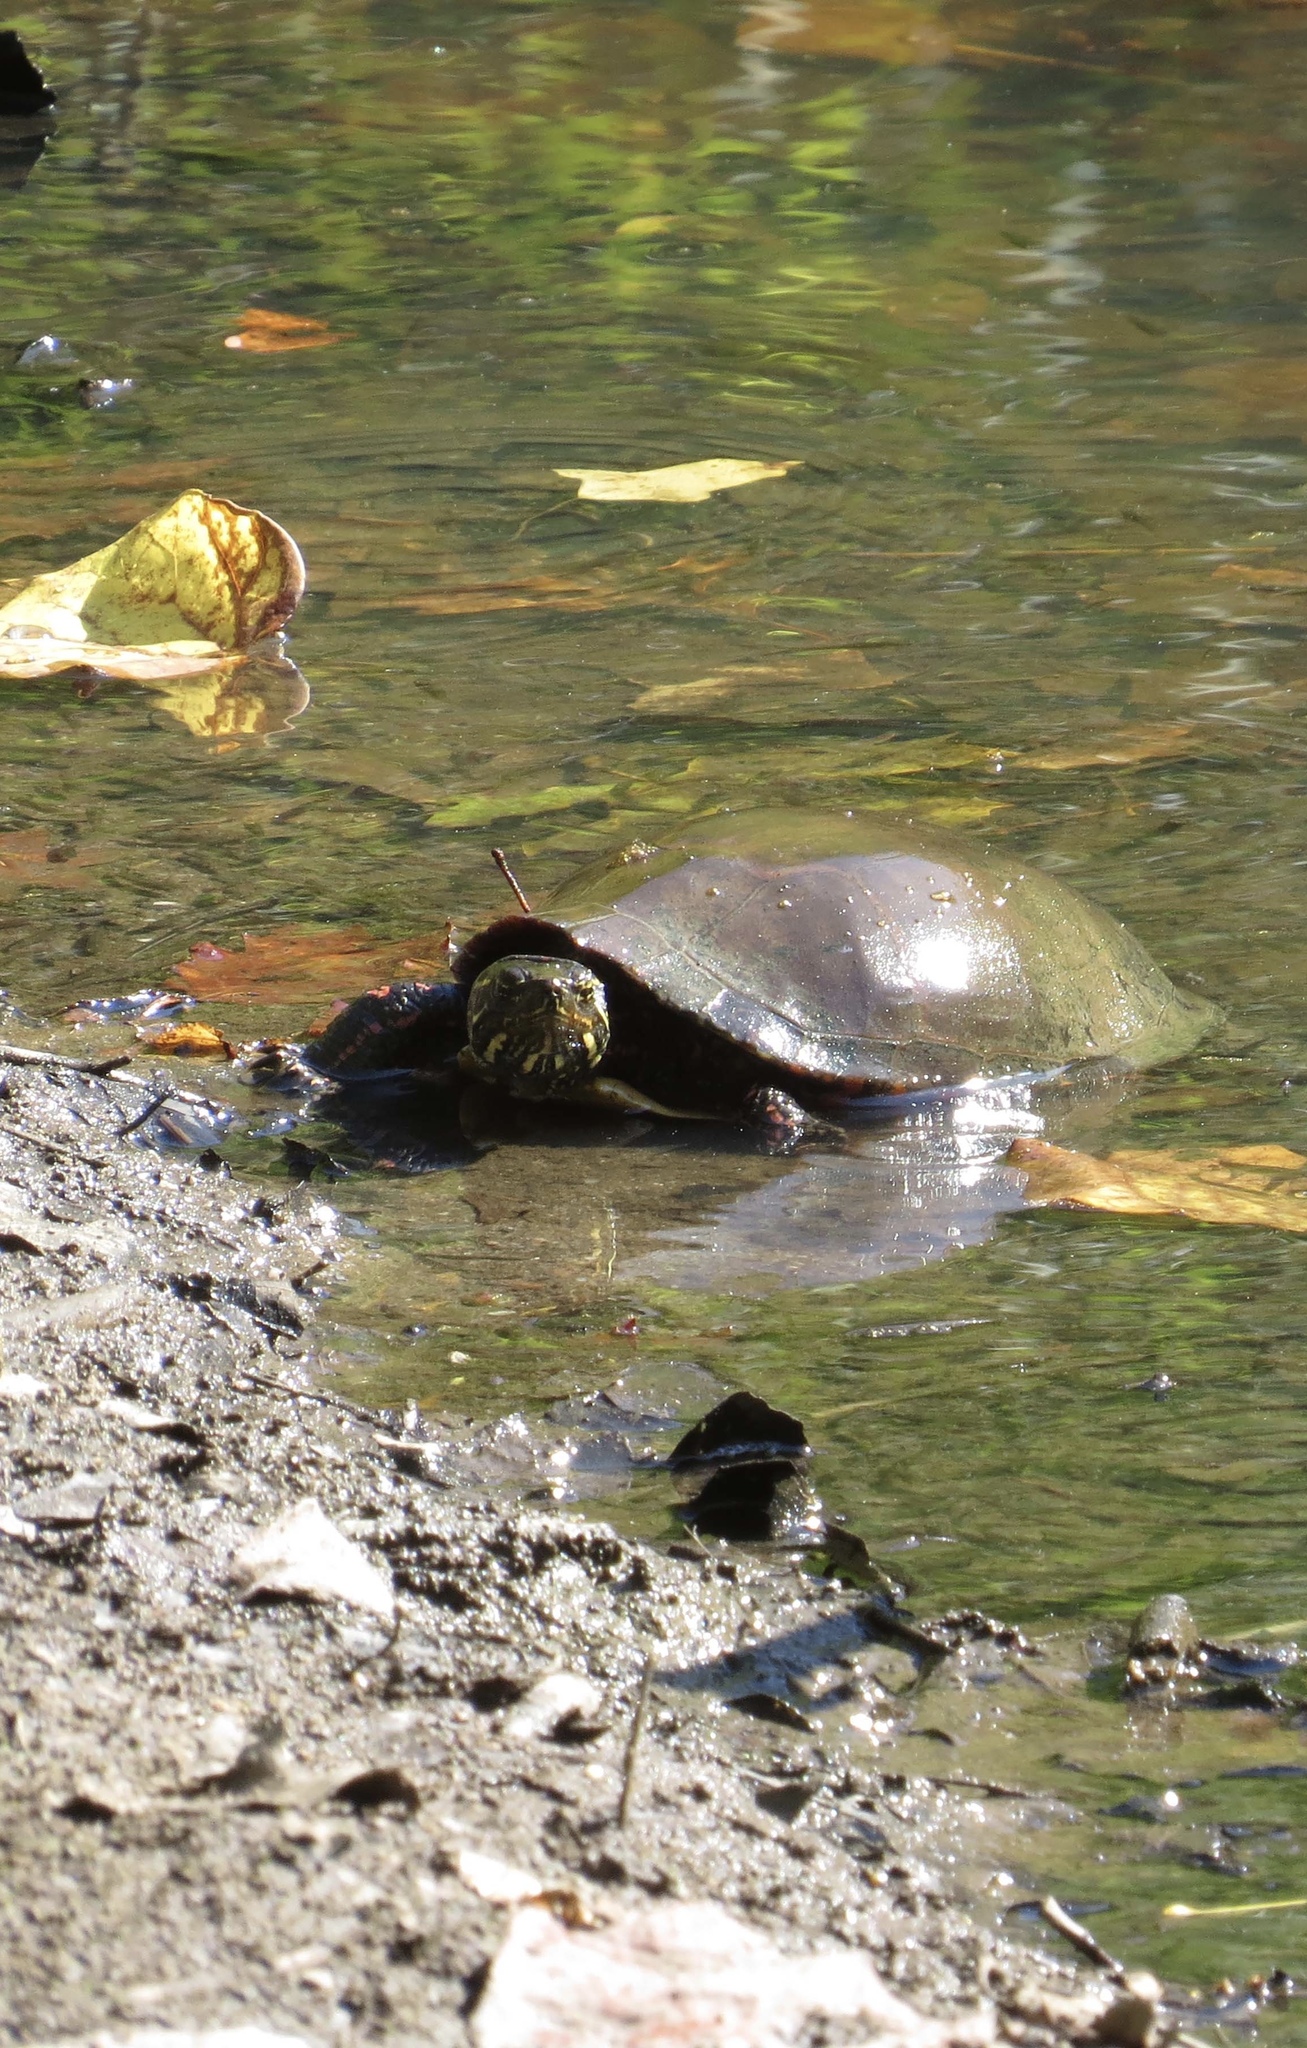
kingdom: Animalia
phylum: Chordata
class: Testudines
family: Emydidae
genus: Chrysemys
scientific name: Chrysemys picta
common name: Painted turtle
